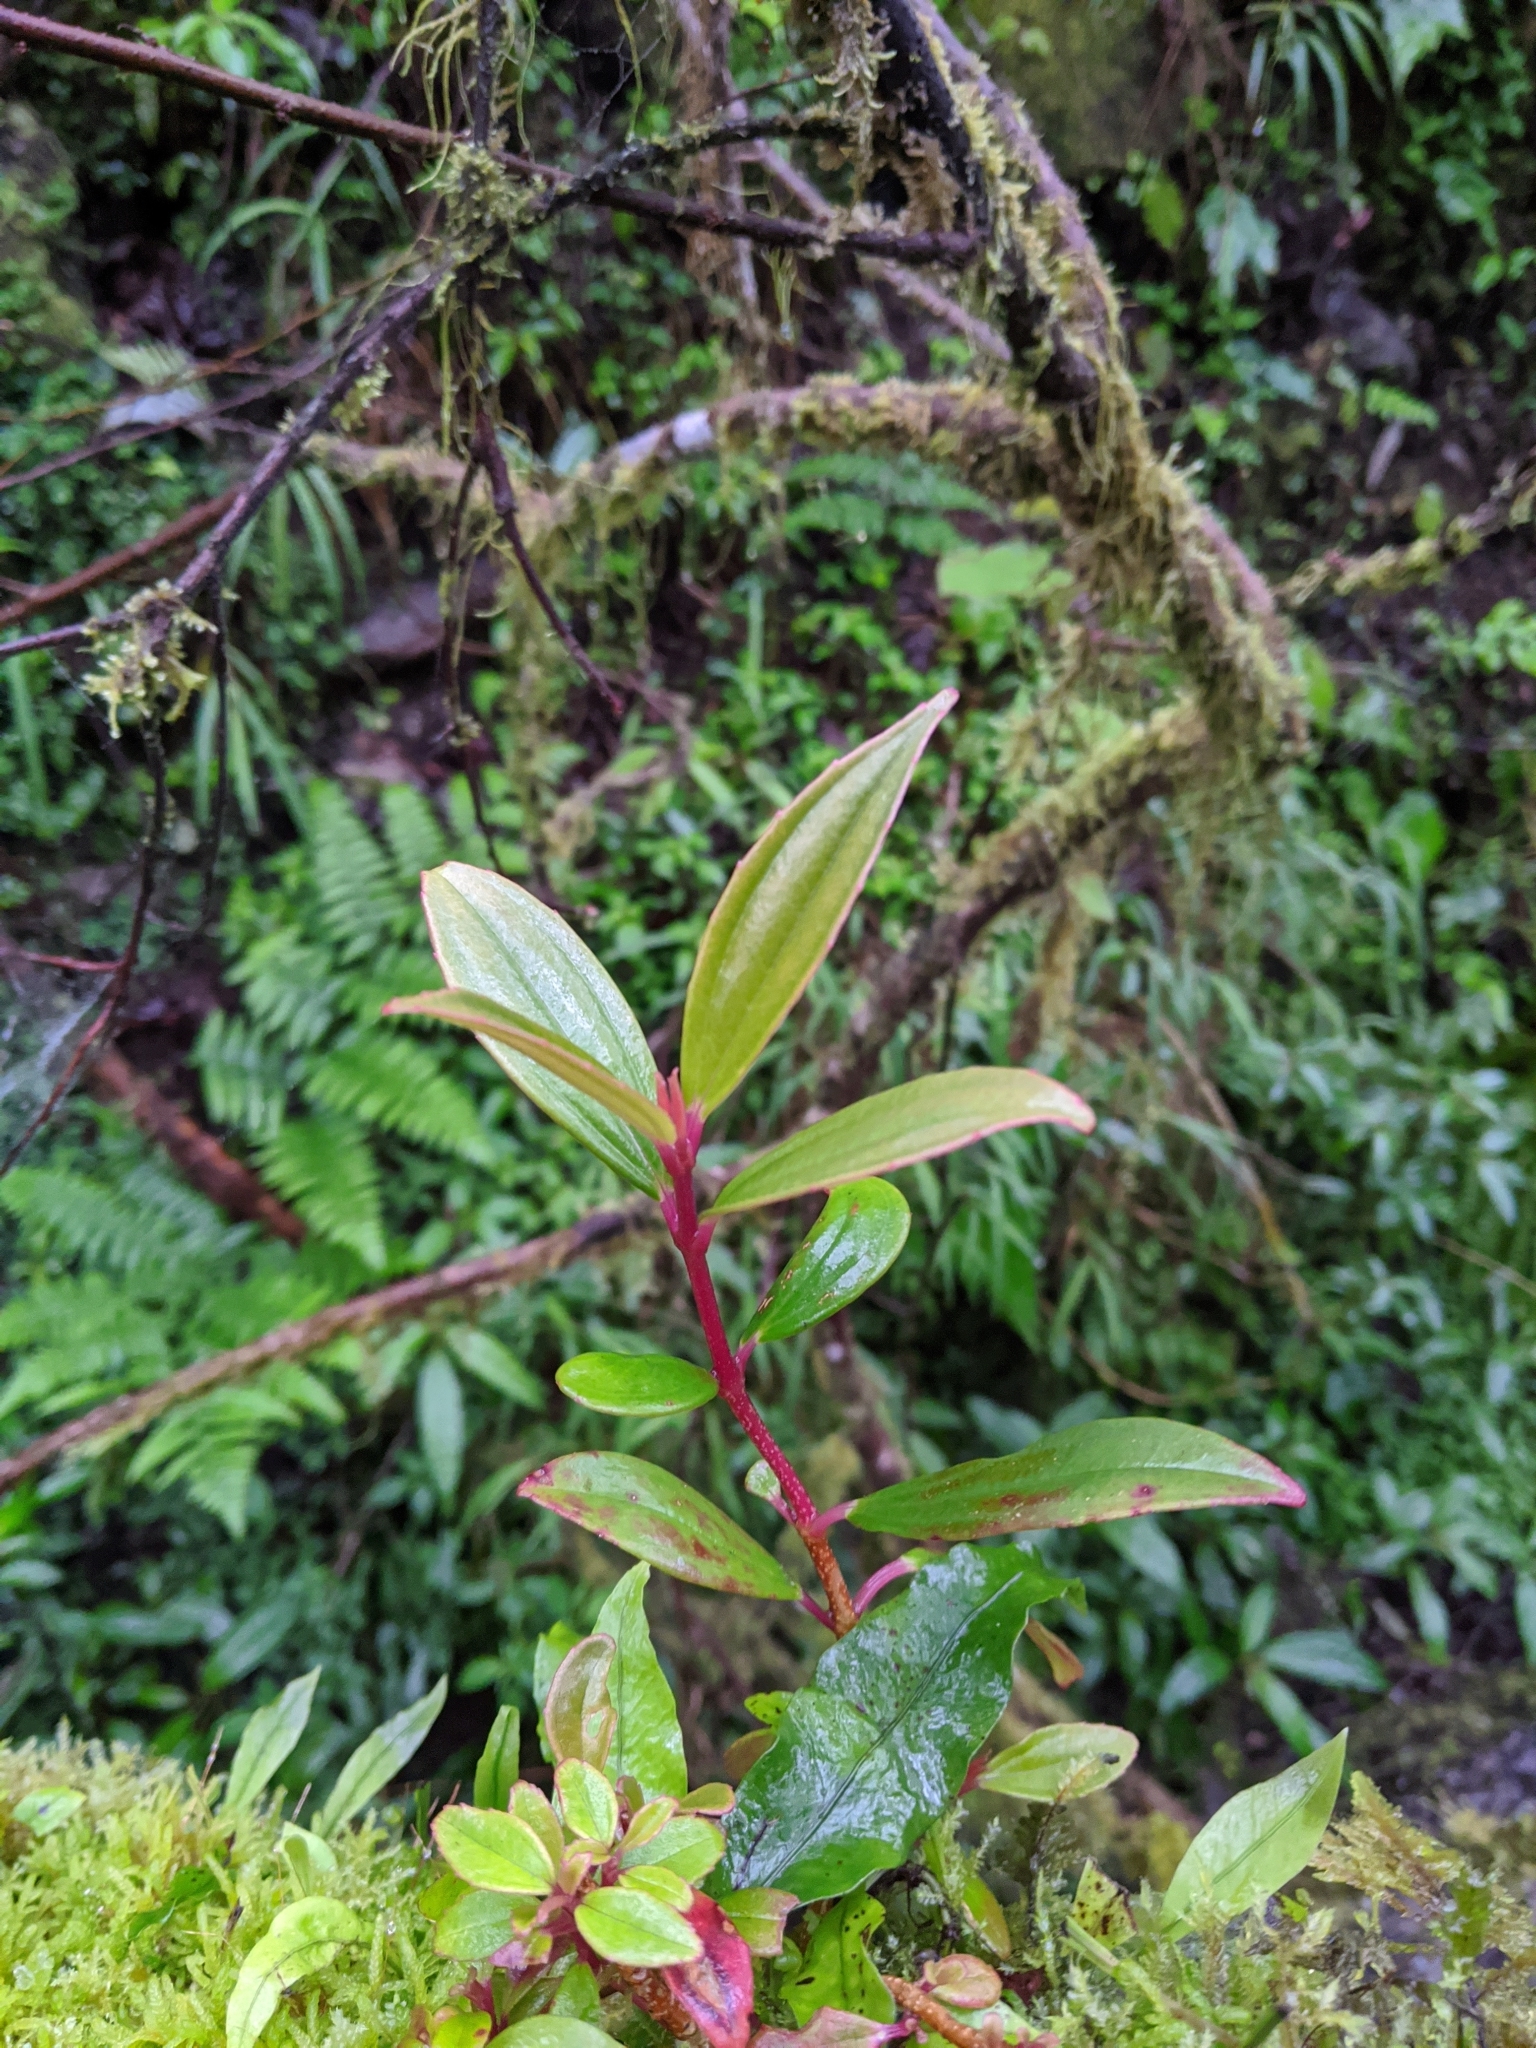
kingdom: Plantae
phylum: Tracheophyta
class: Magnoliopsida
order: Myrtales
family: Melastomataceae
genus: Medinilla
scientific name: Medinilla fengii
